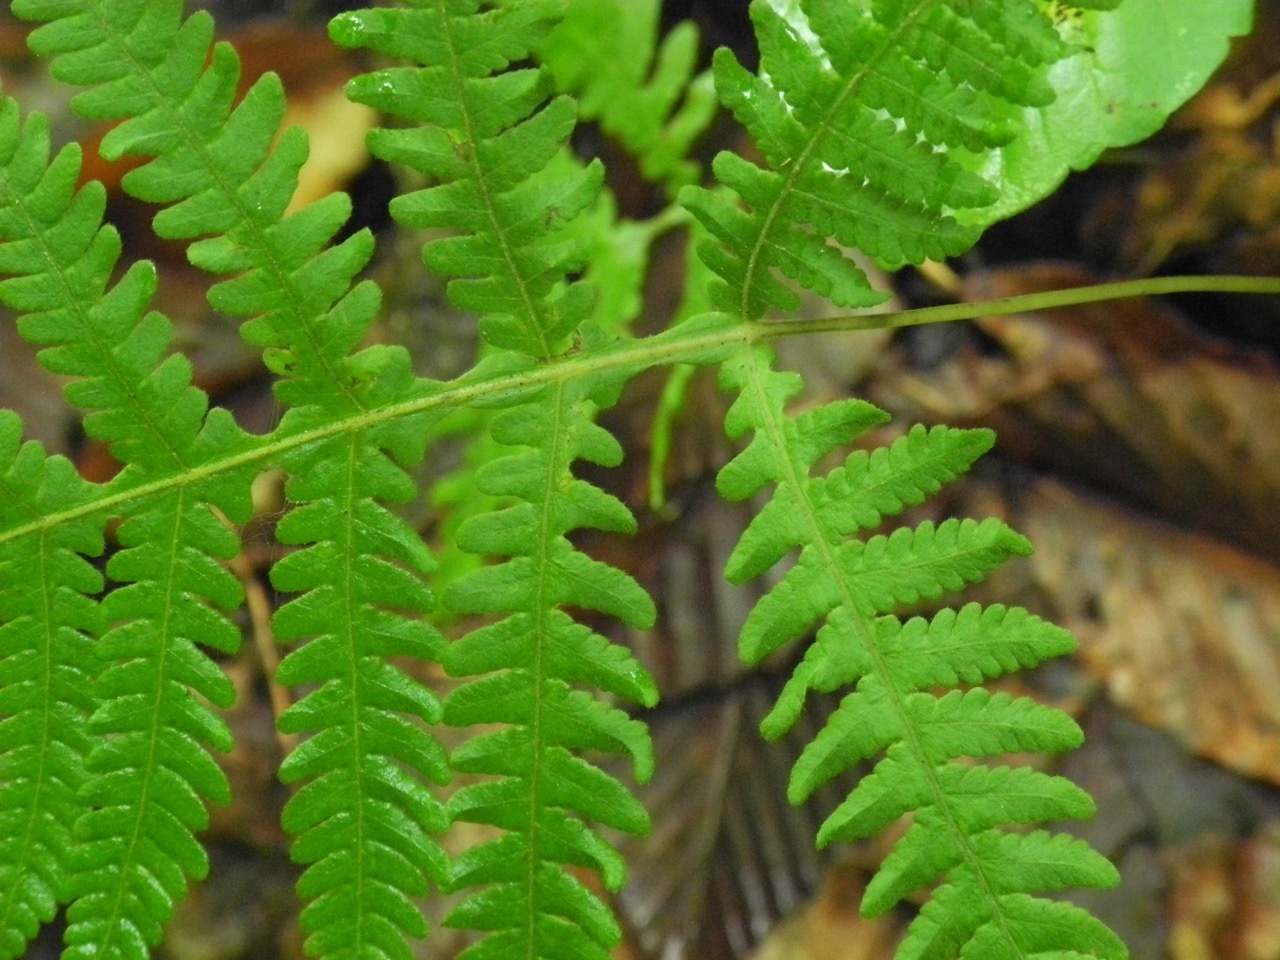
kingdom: Plantae
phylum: Tracheophyta
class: Polypodiopsida
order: Polypodiales
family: Thelypteridaceae
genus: Phegopteris
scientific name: Phegopteris hexagonoptera
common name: Broad beech fern
